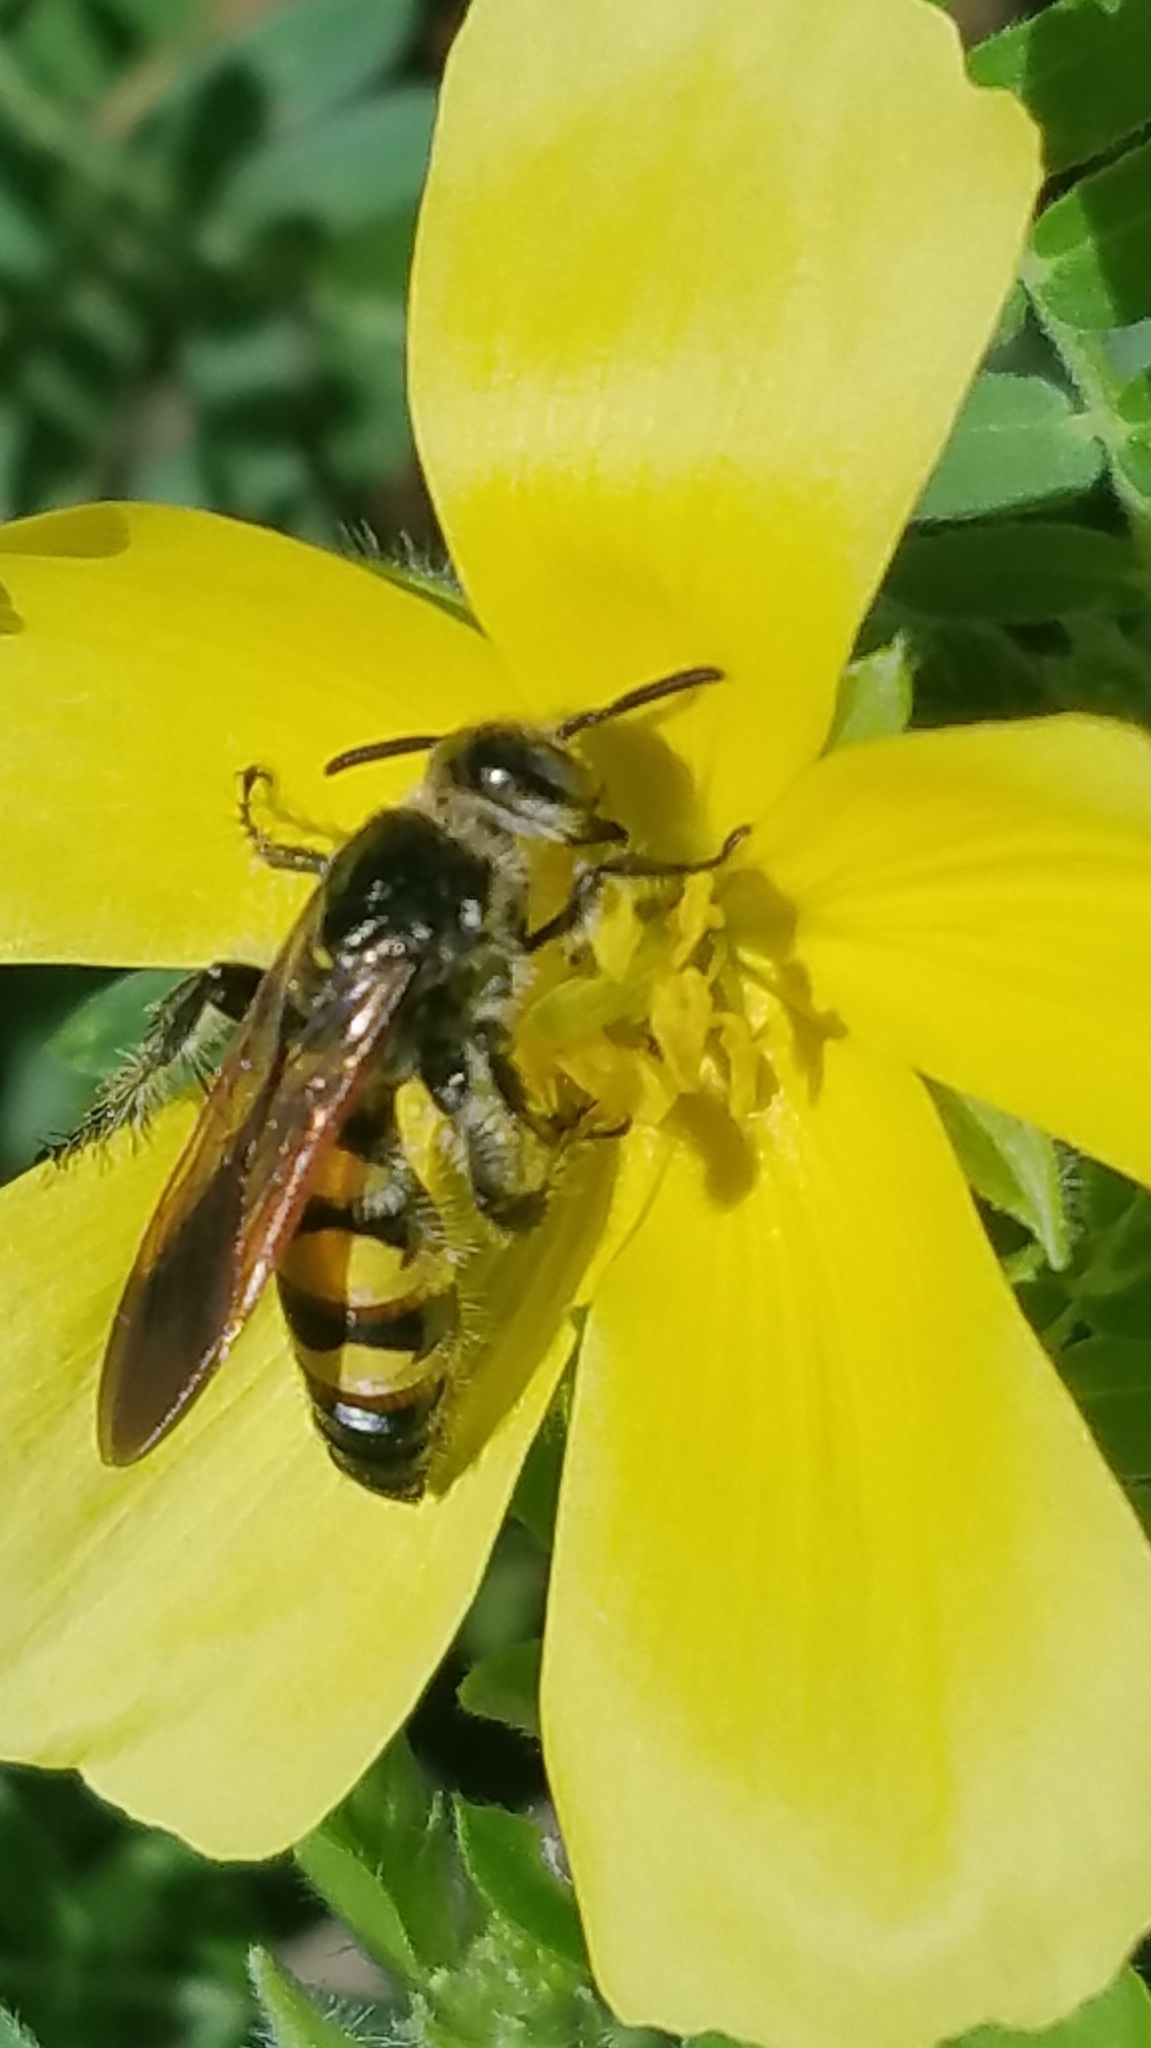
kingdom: Animalia
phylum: Arthropoda
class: Insecta
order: Hymenoptera
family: Scoliidae
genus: Dielis
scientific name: Dielis
